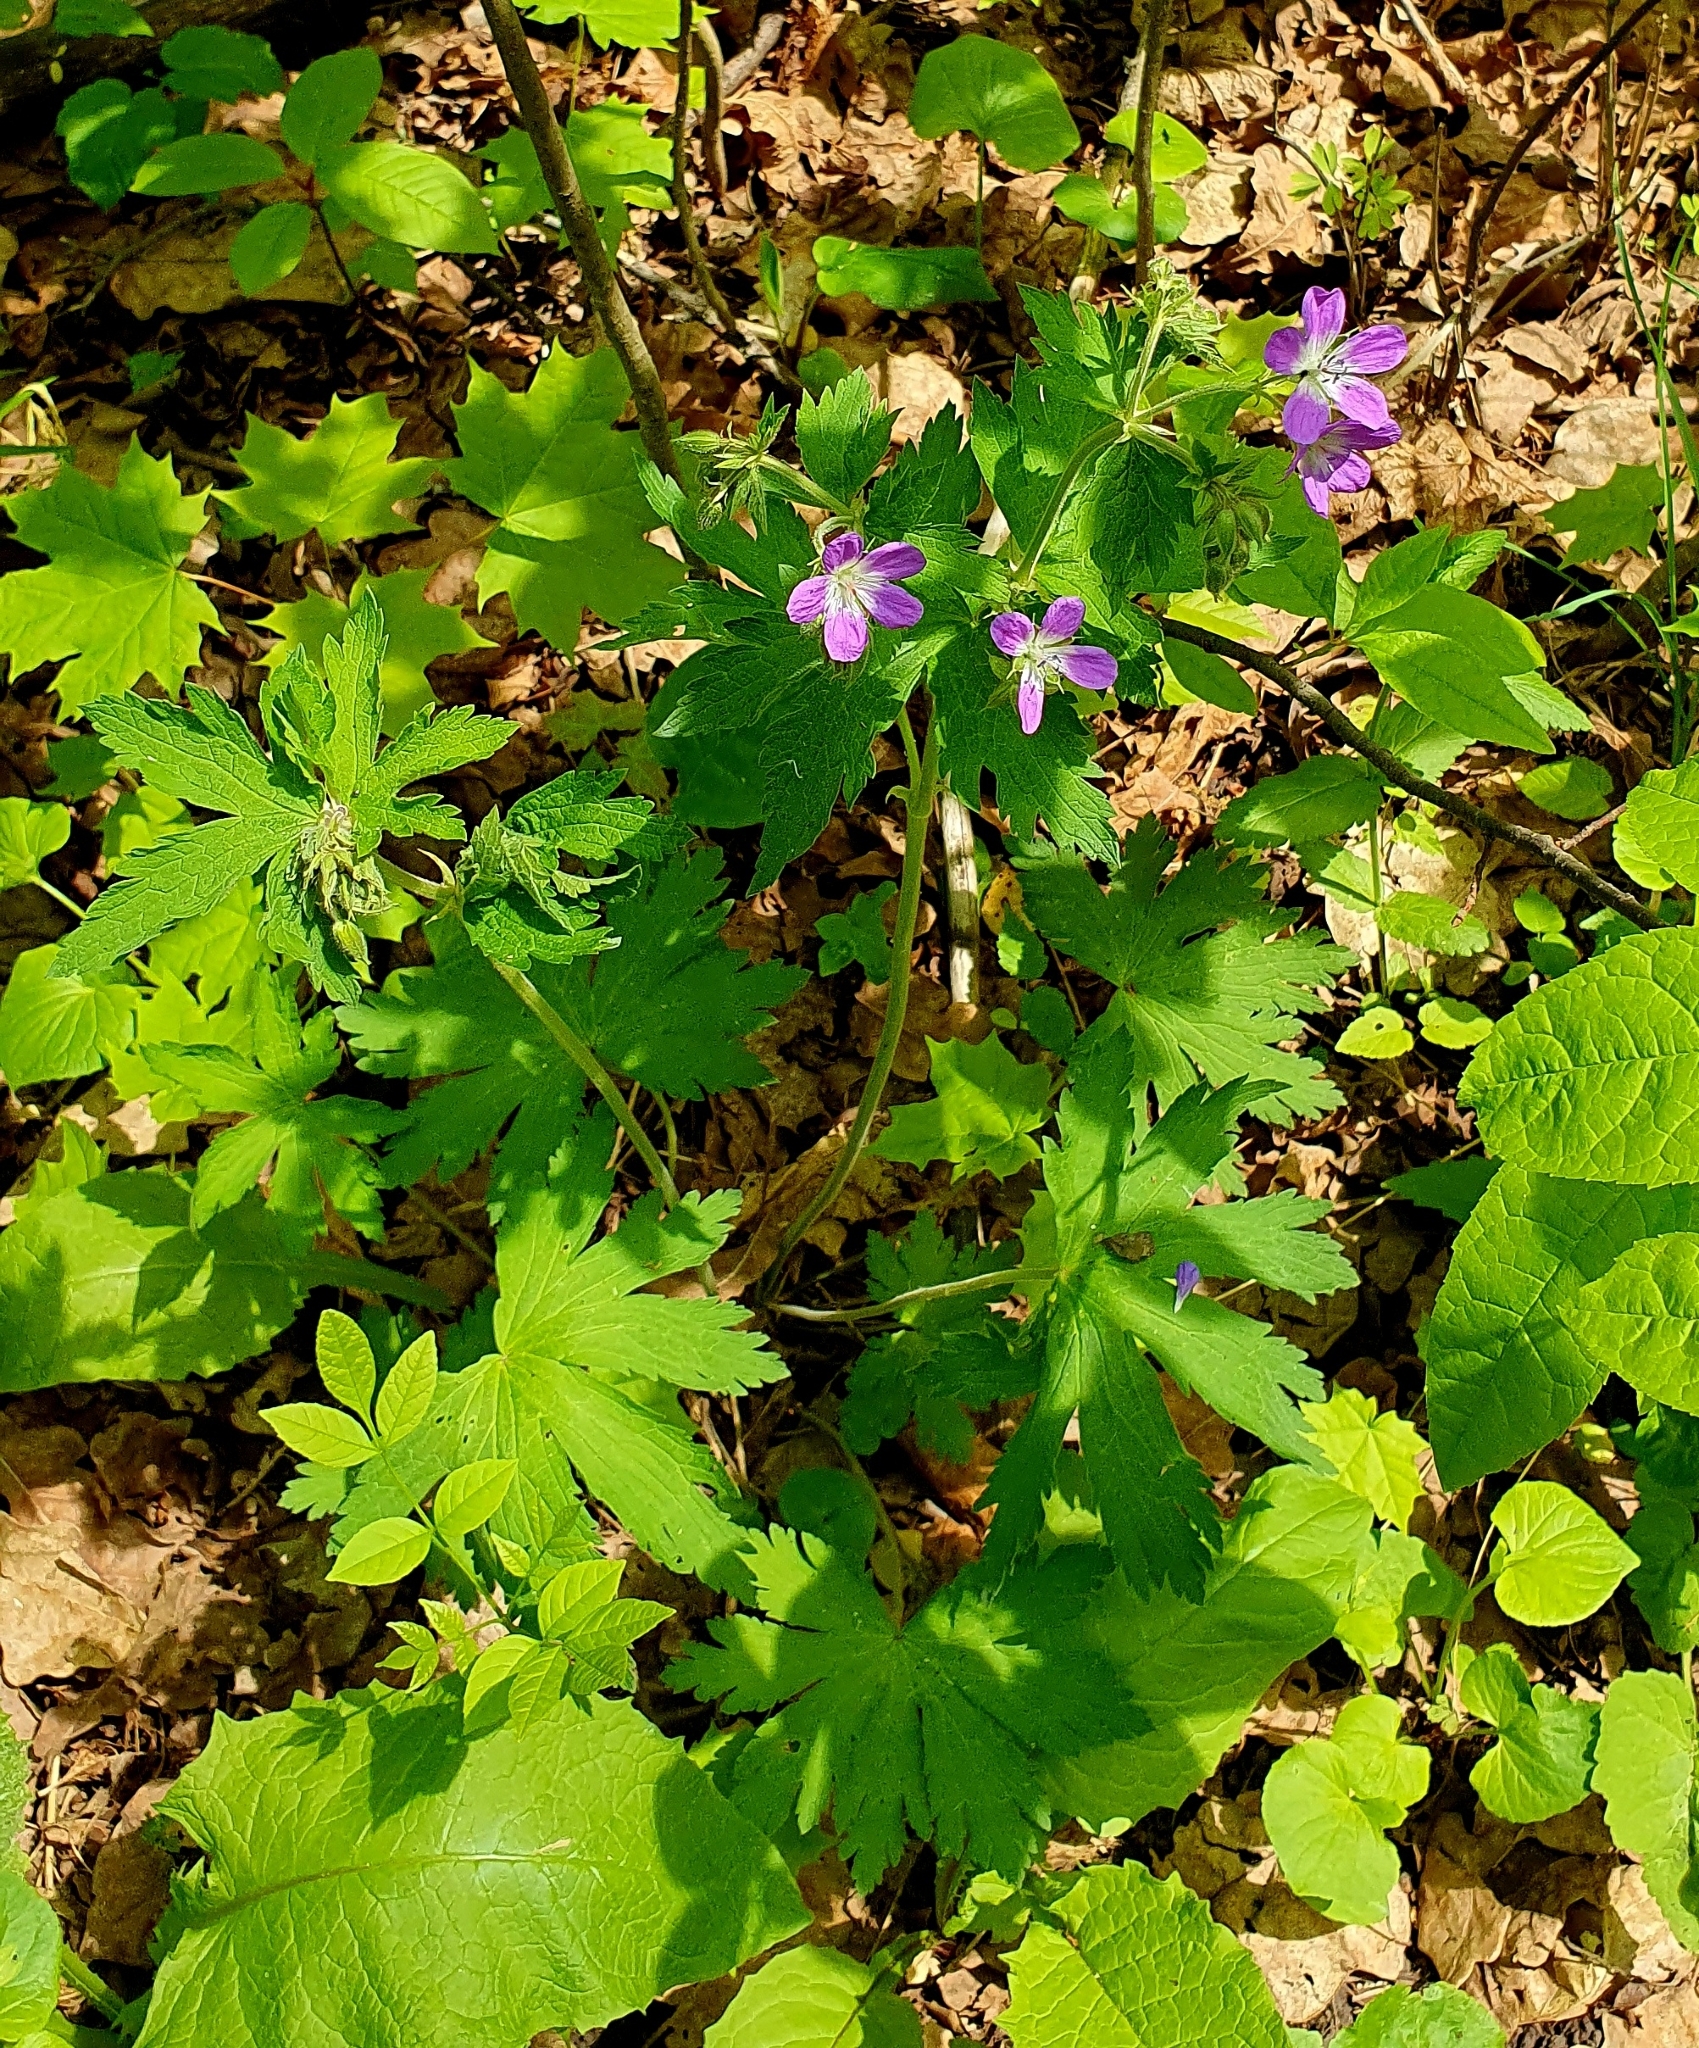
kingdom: Plantae
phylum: Tracheophyta
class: Magnoliopsida
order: Geraniales
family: Geraniaceae
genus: Geranium
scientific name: Geranium sylvaticum
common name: Wood crane's-bill
